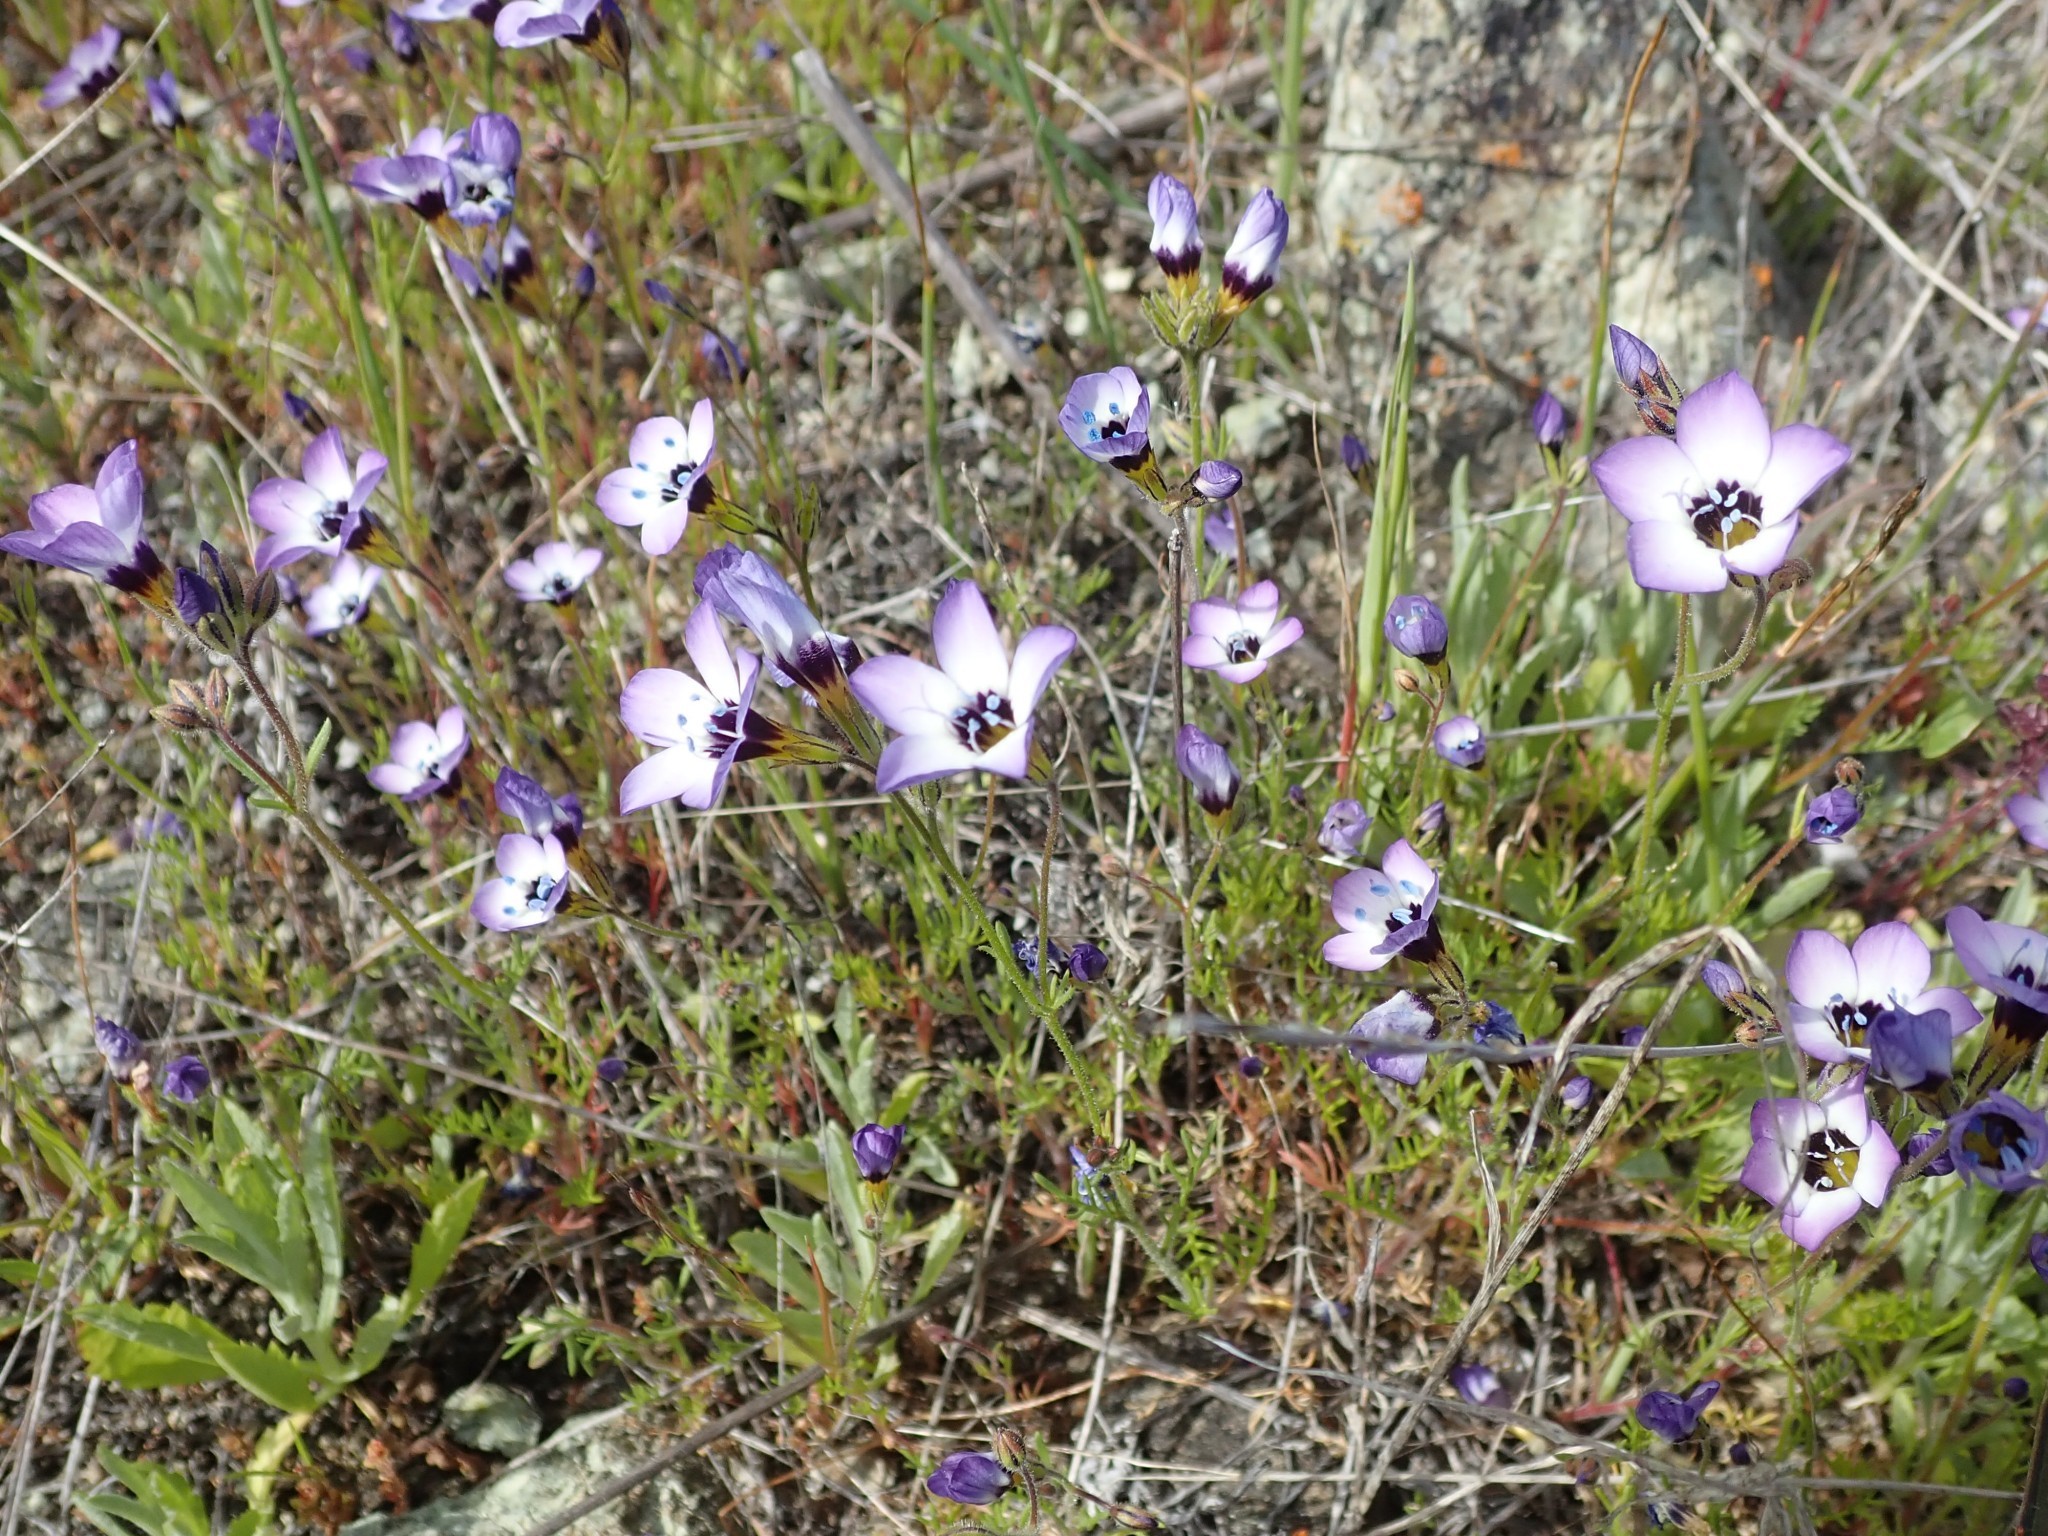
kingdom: Plantae
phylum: Tracheophyta
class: Magnoliopsida
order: Ericales
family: Polemoniaceae
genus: Gilia
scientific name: Gilia tricolor
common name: Bird's-eyes
